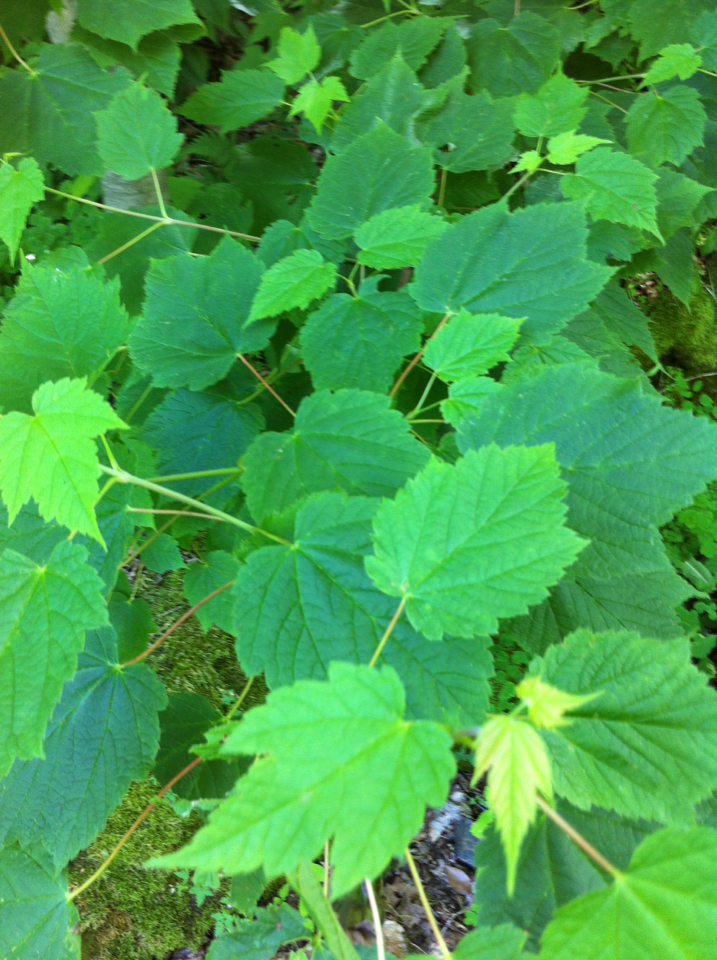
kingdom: Plantae
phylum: Tracheophyta
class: Magnoliopsida
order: Sapindales
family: Sapindaceae
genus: Acer
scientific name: Acer spicatum
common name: Mountain maple
